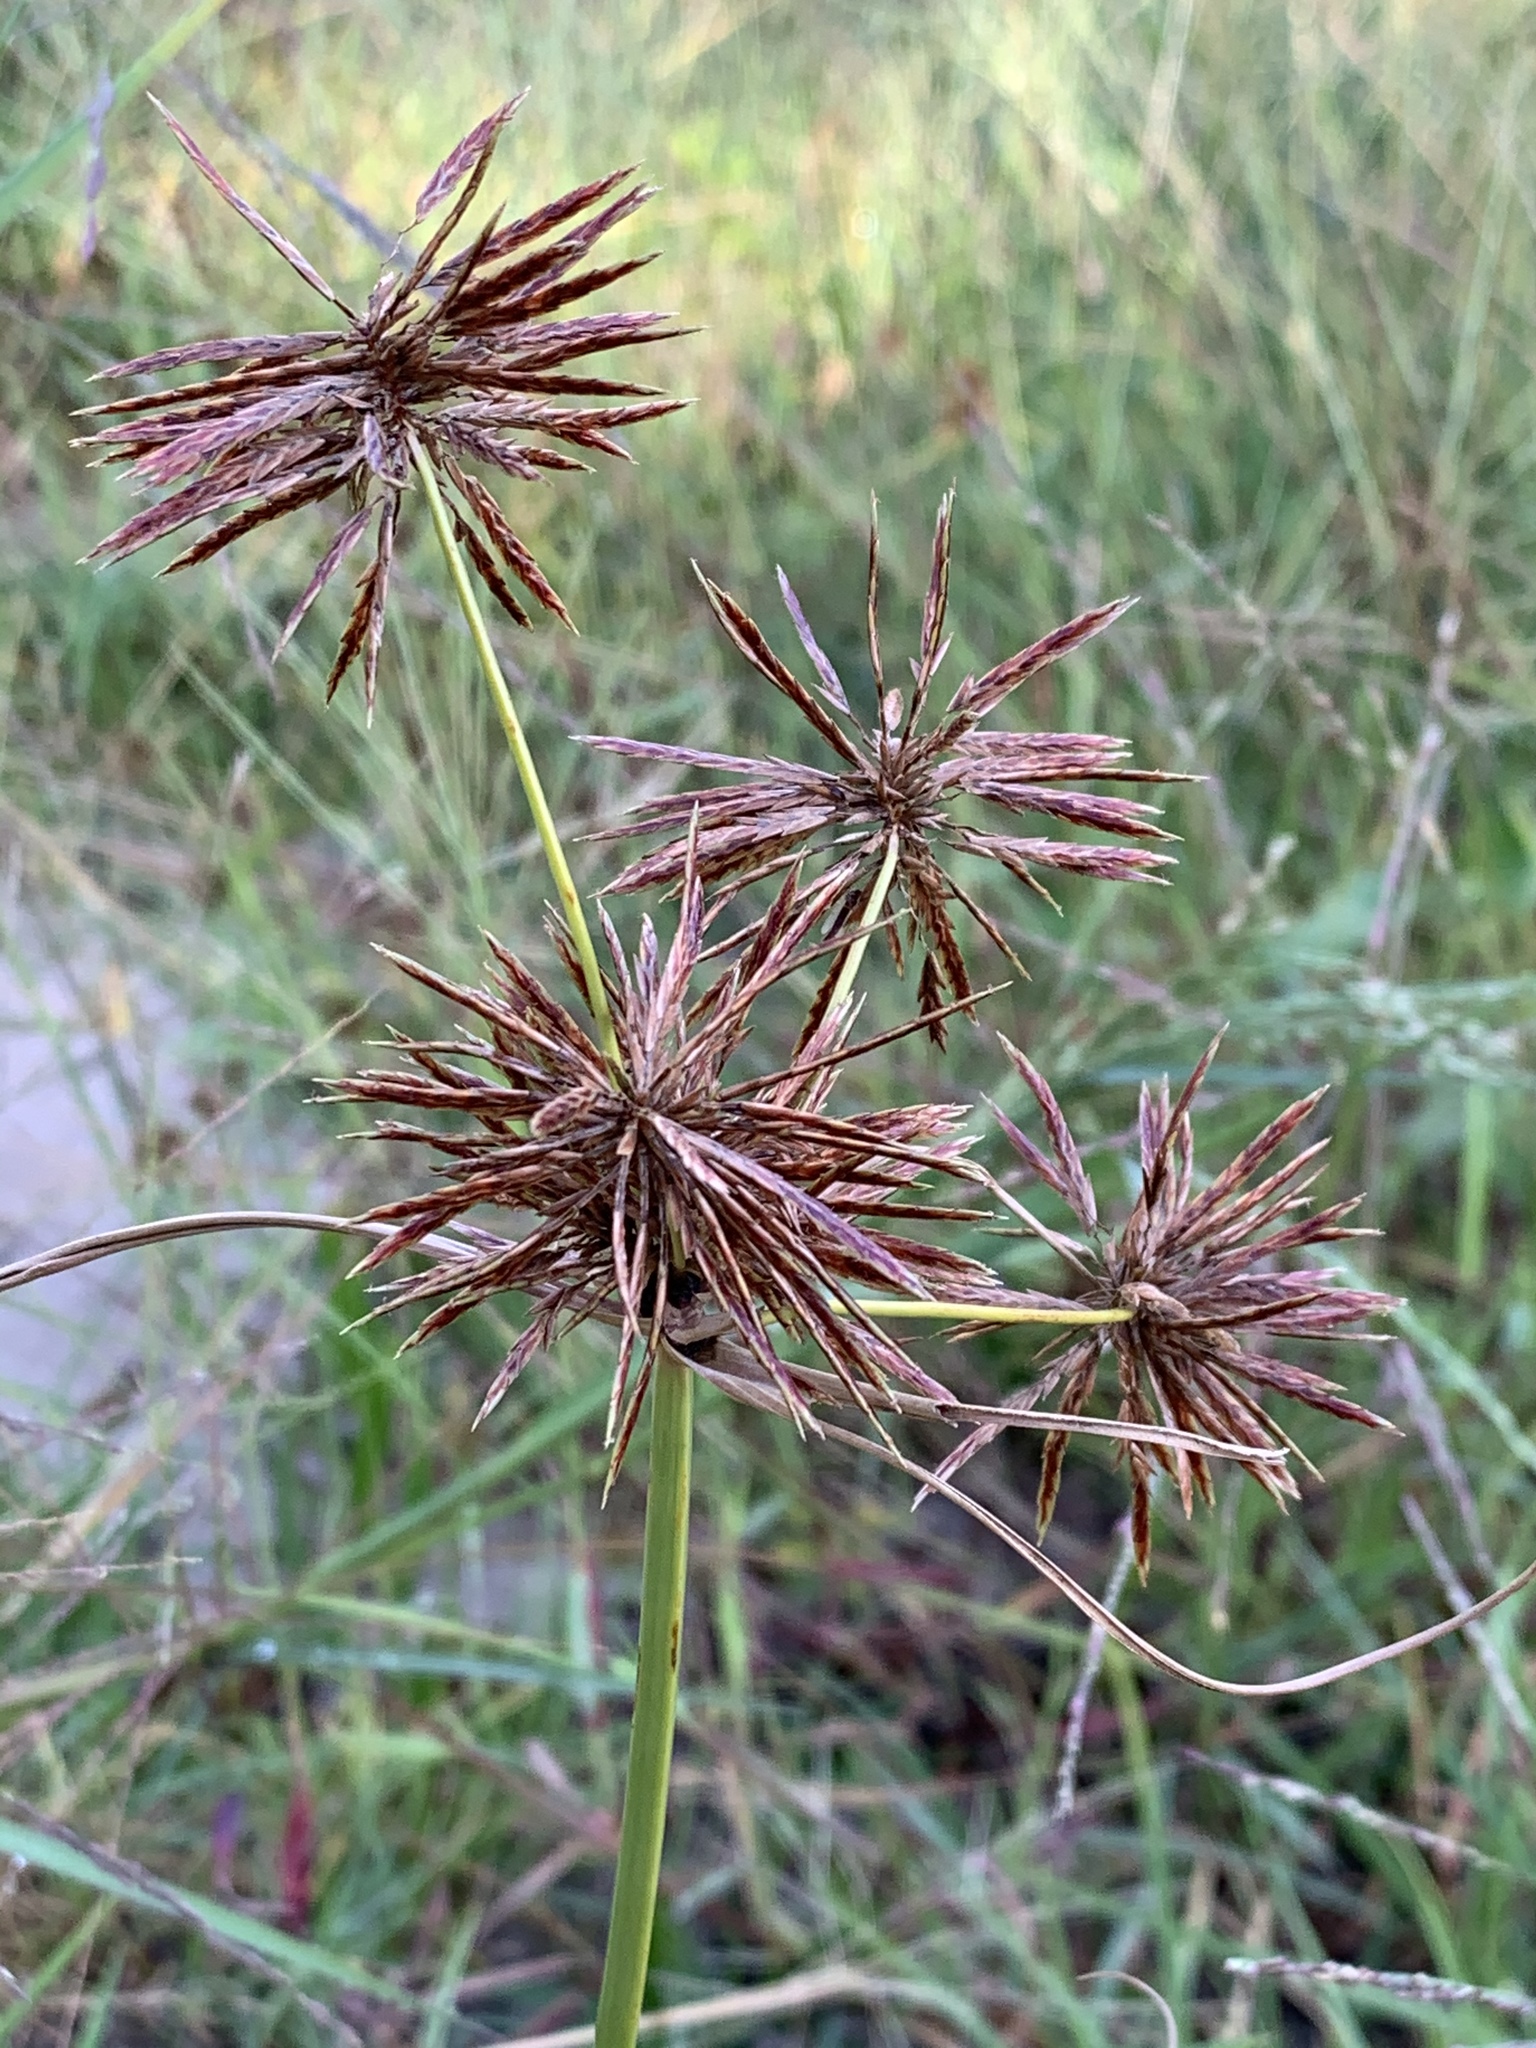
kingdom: Plantae
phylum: Tracheophyta
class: Liliopsida
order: Poales
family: Cyperaceae
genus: Cyperus
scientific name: Cyperus congestus
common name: Dense flat sedge
